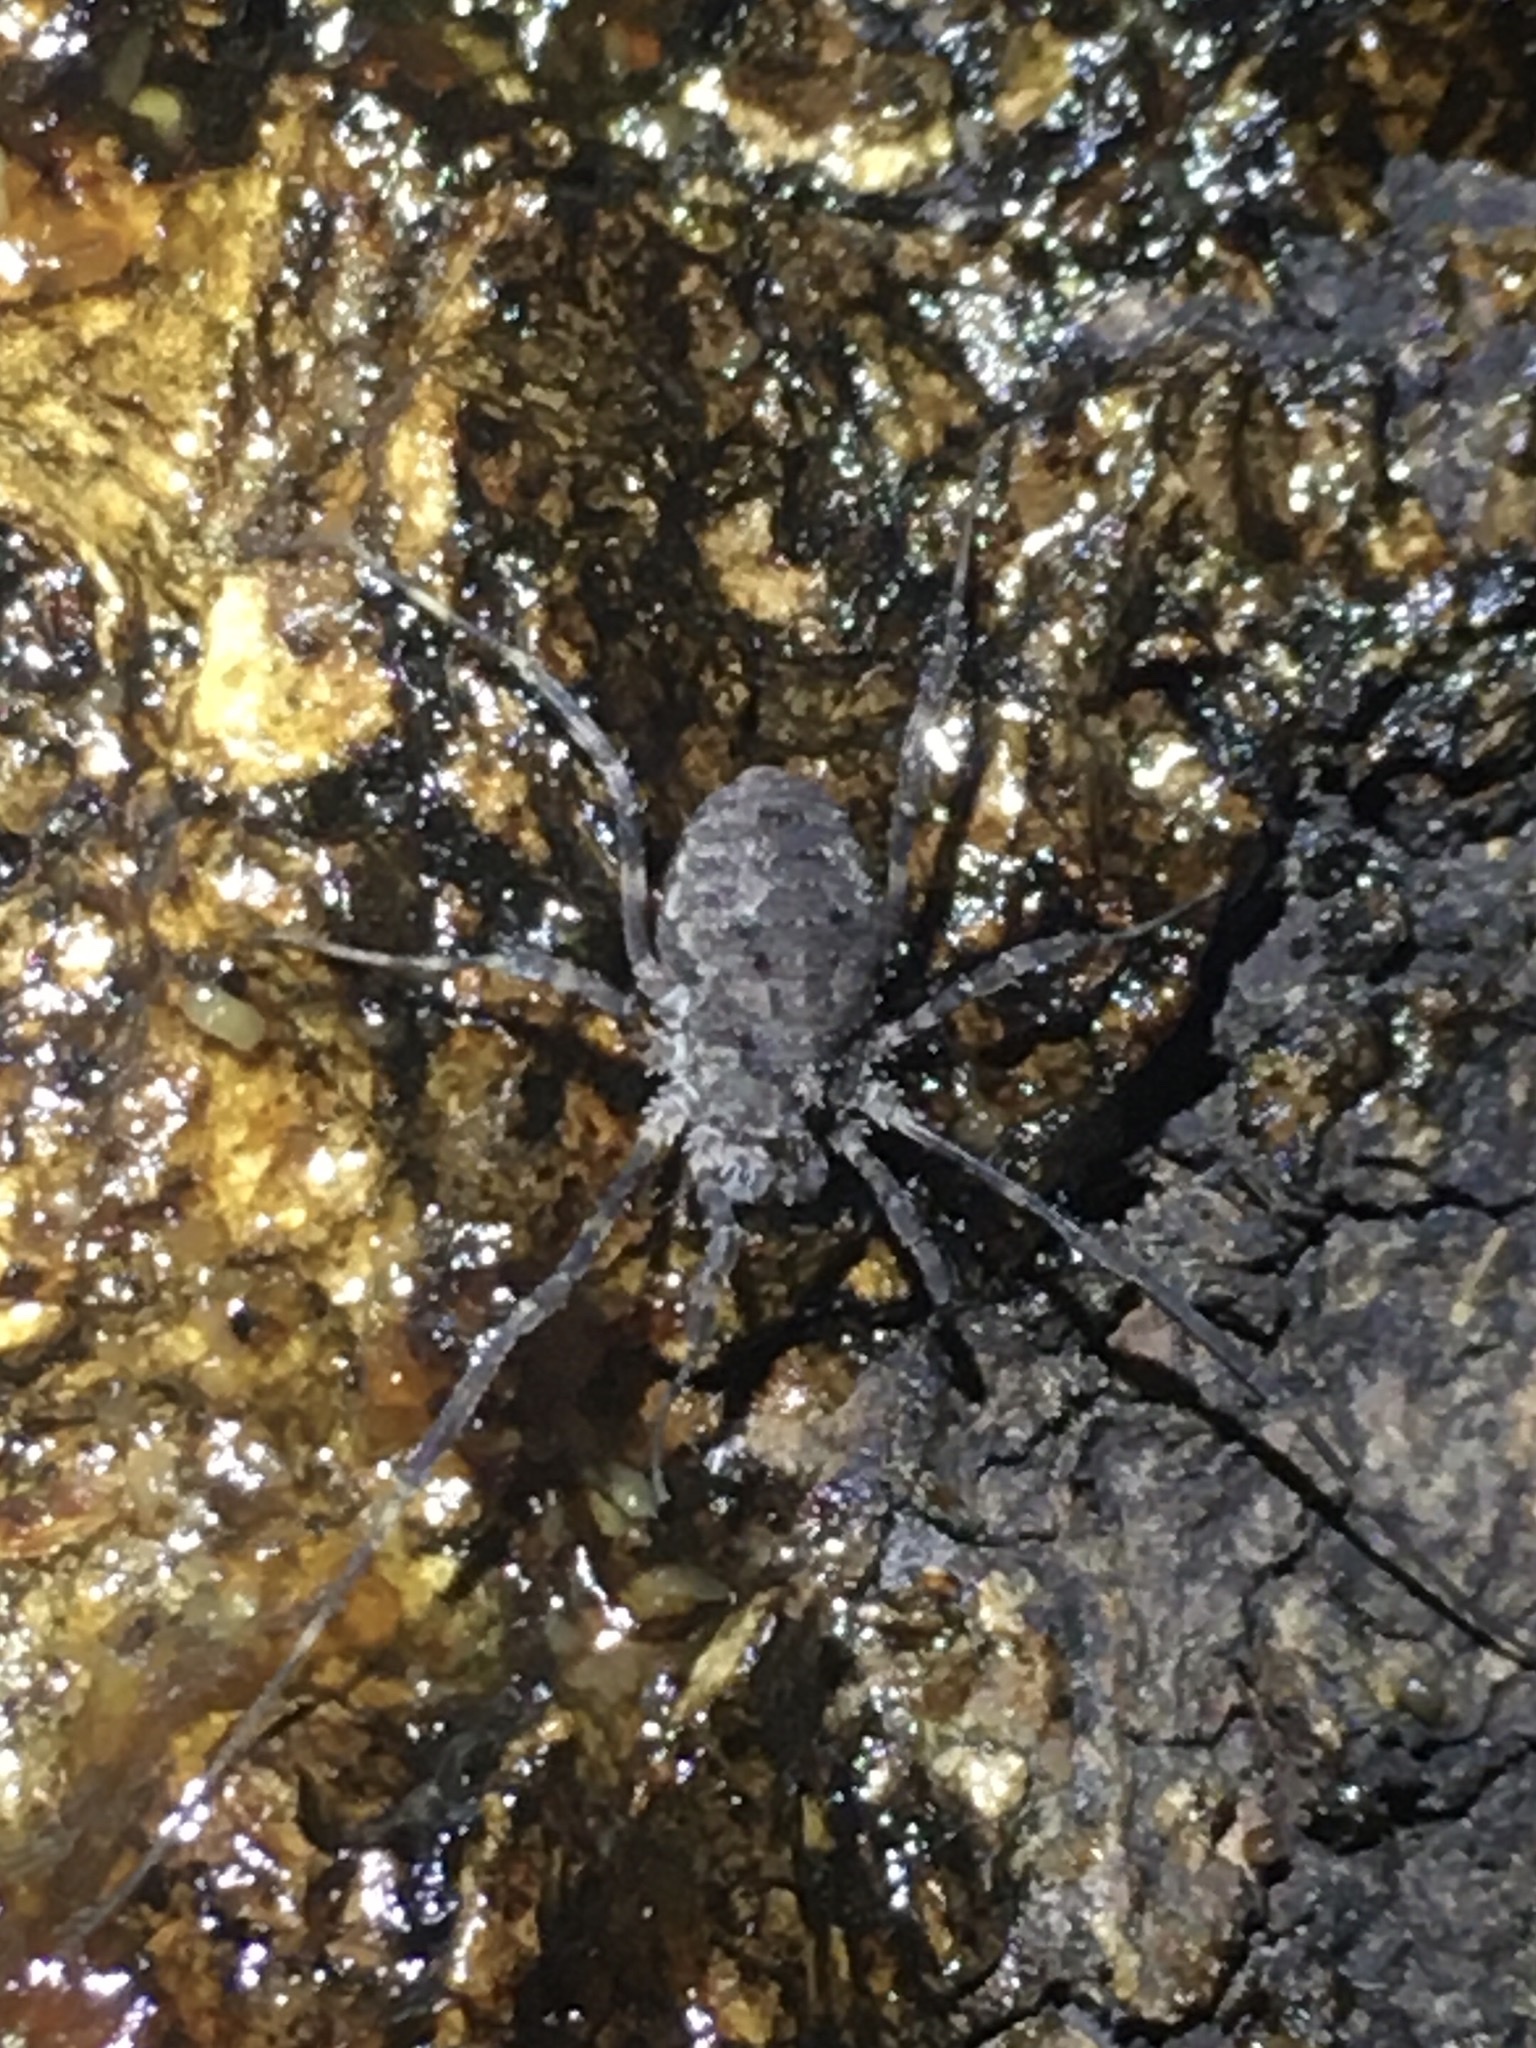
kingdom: Animalia
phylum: Arthropoda
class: Arachnida
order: Opiliones
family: Phalangiidae
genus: Odiellus
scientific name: Odiellus pictus
